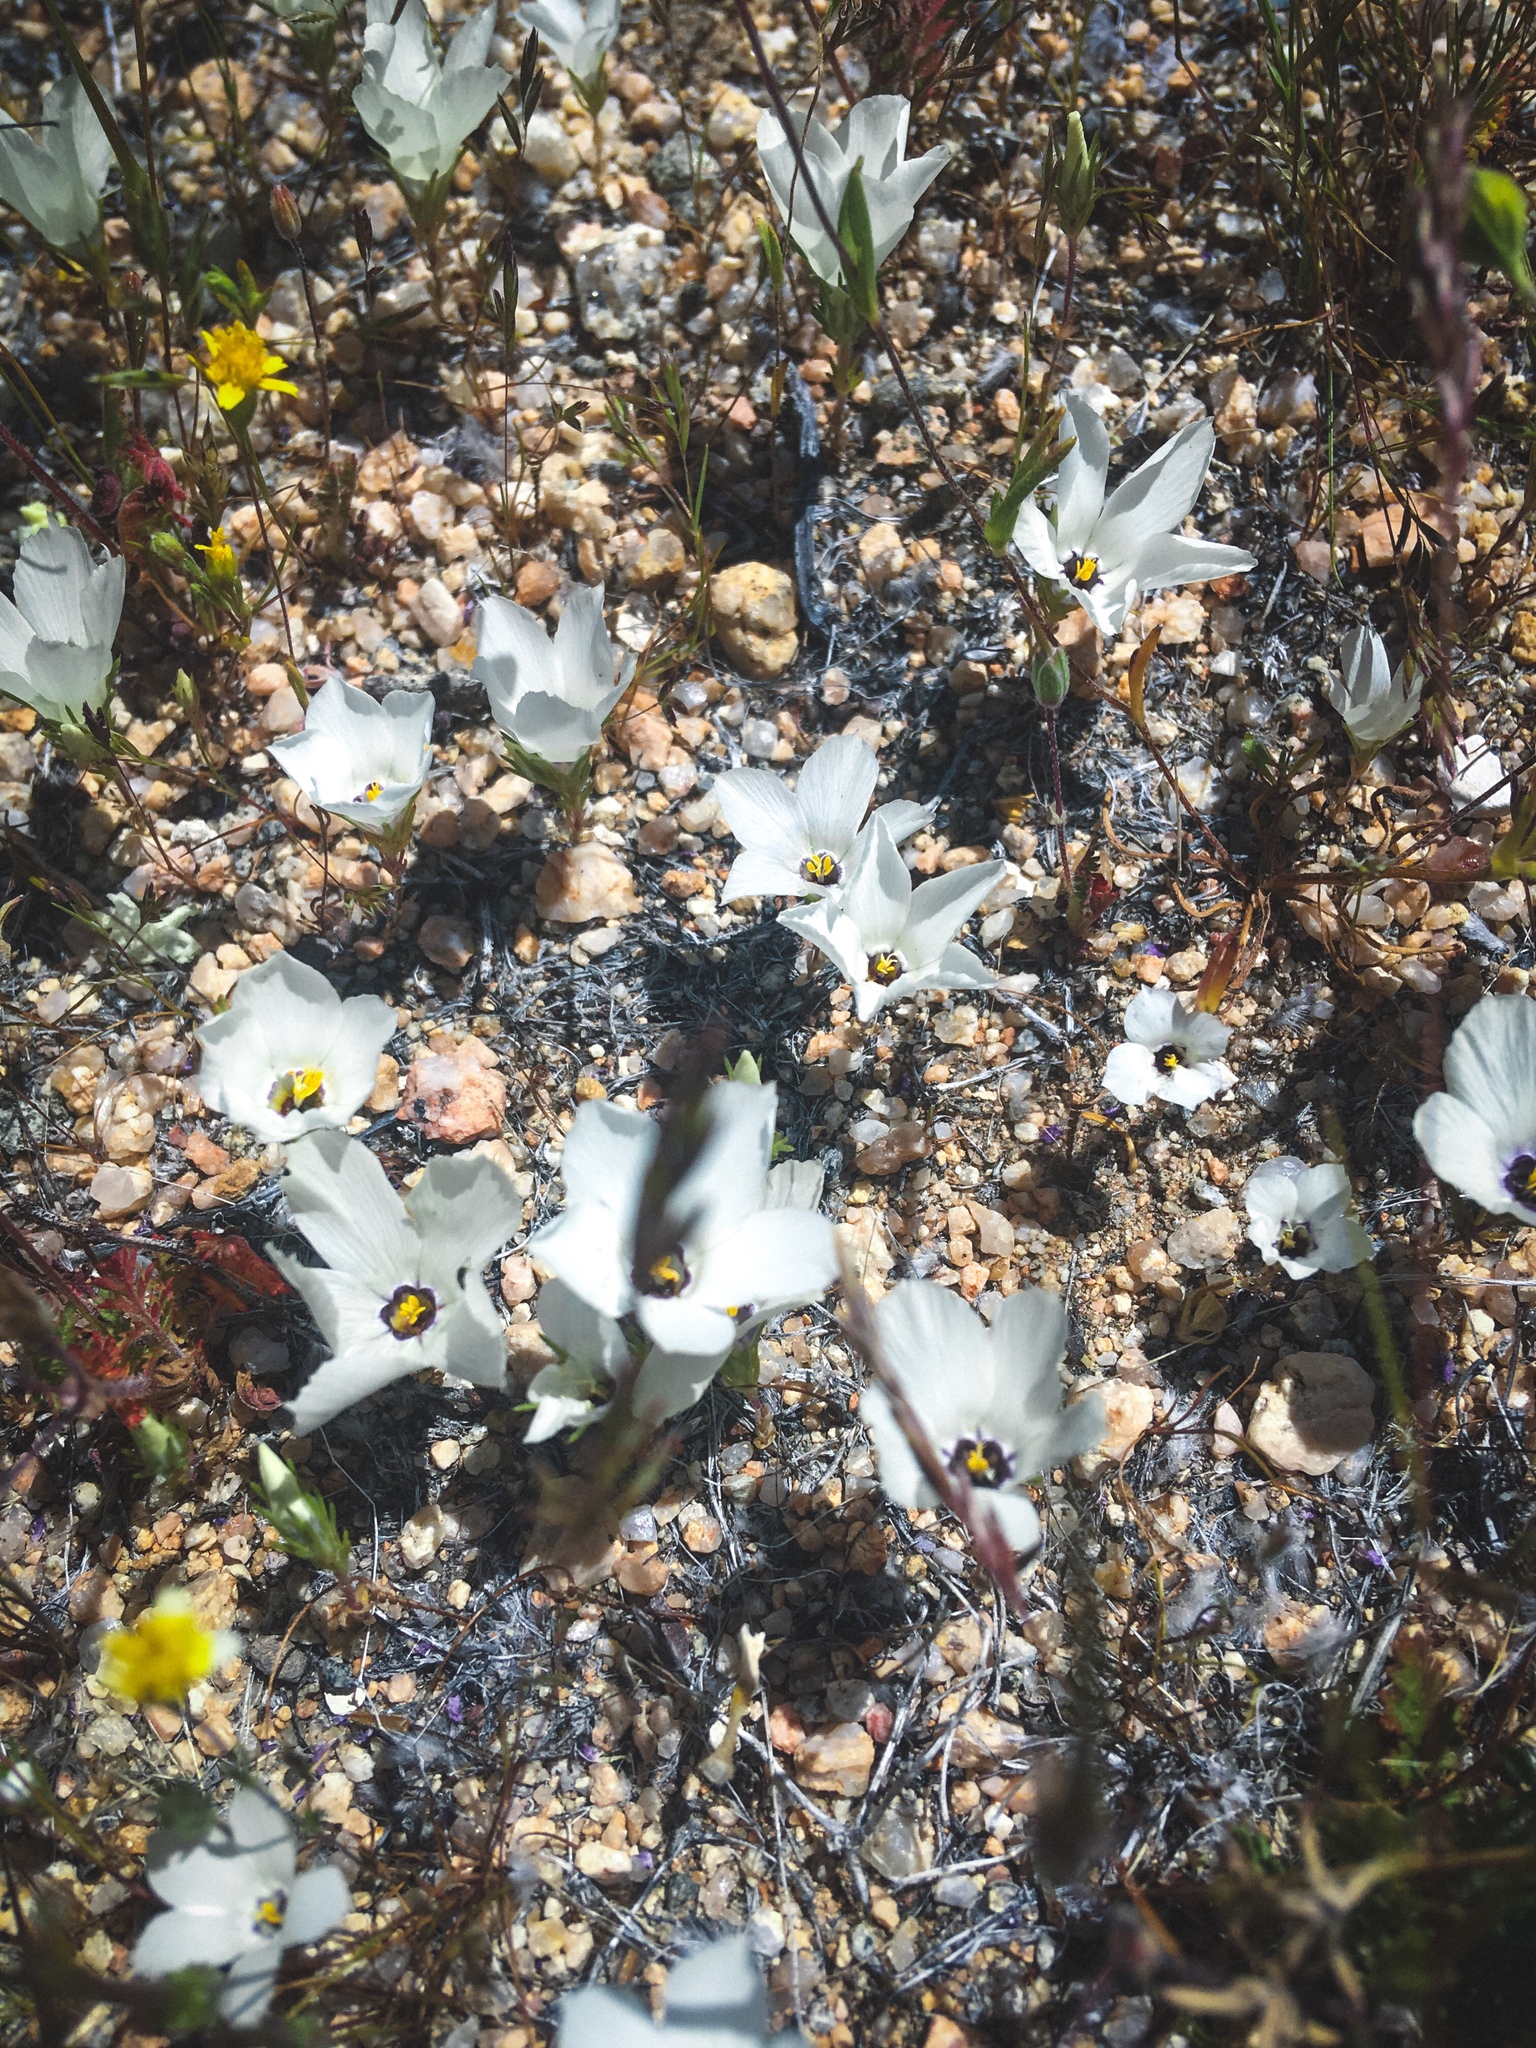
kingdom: Plantae
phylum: Tracheophyta
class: Magnoliopsida
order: Ericales
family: Polemoniaceae
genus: Linanthus
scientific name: Linanthus parryae
